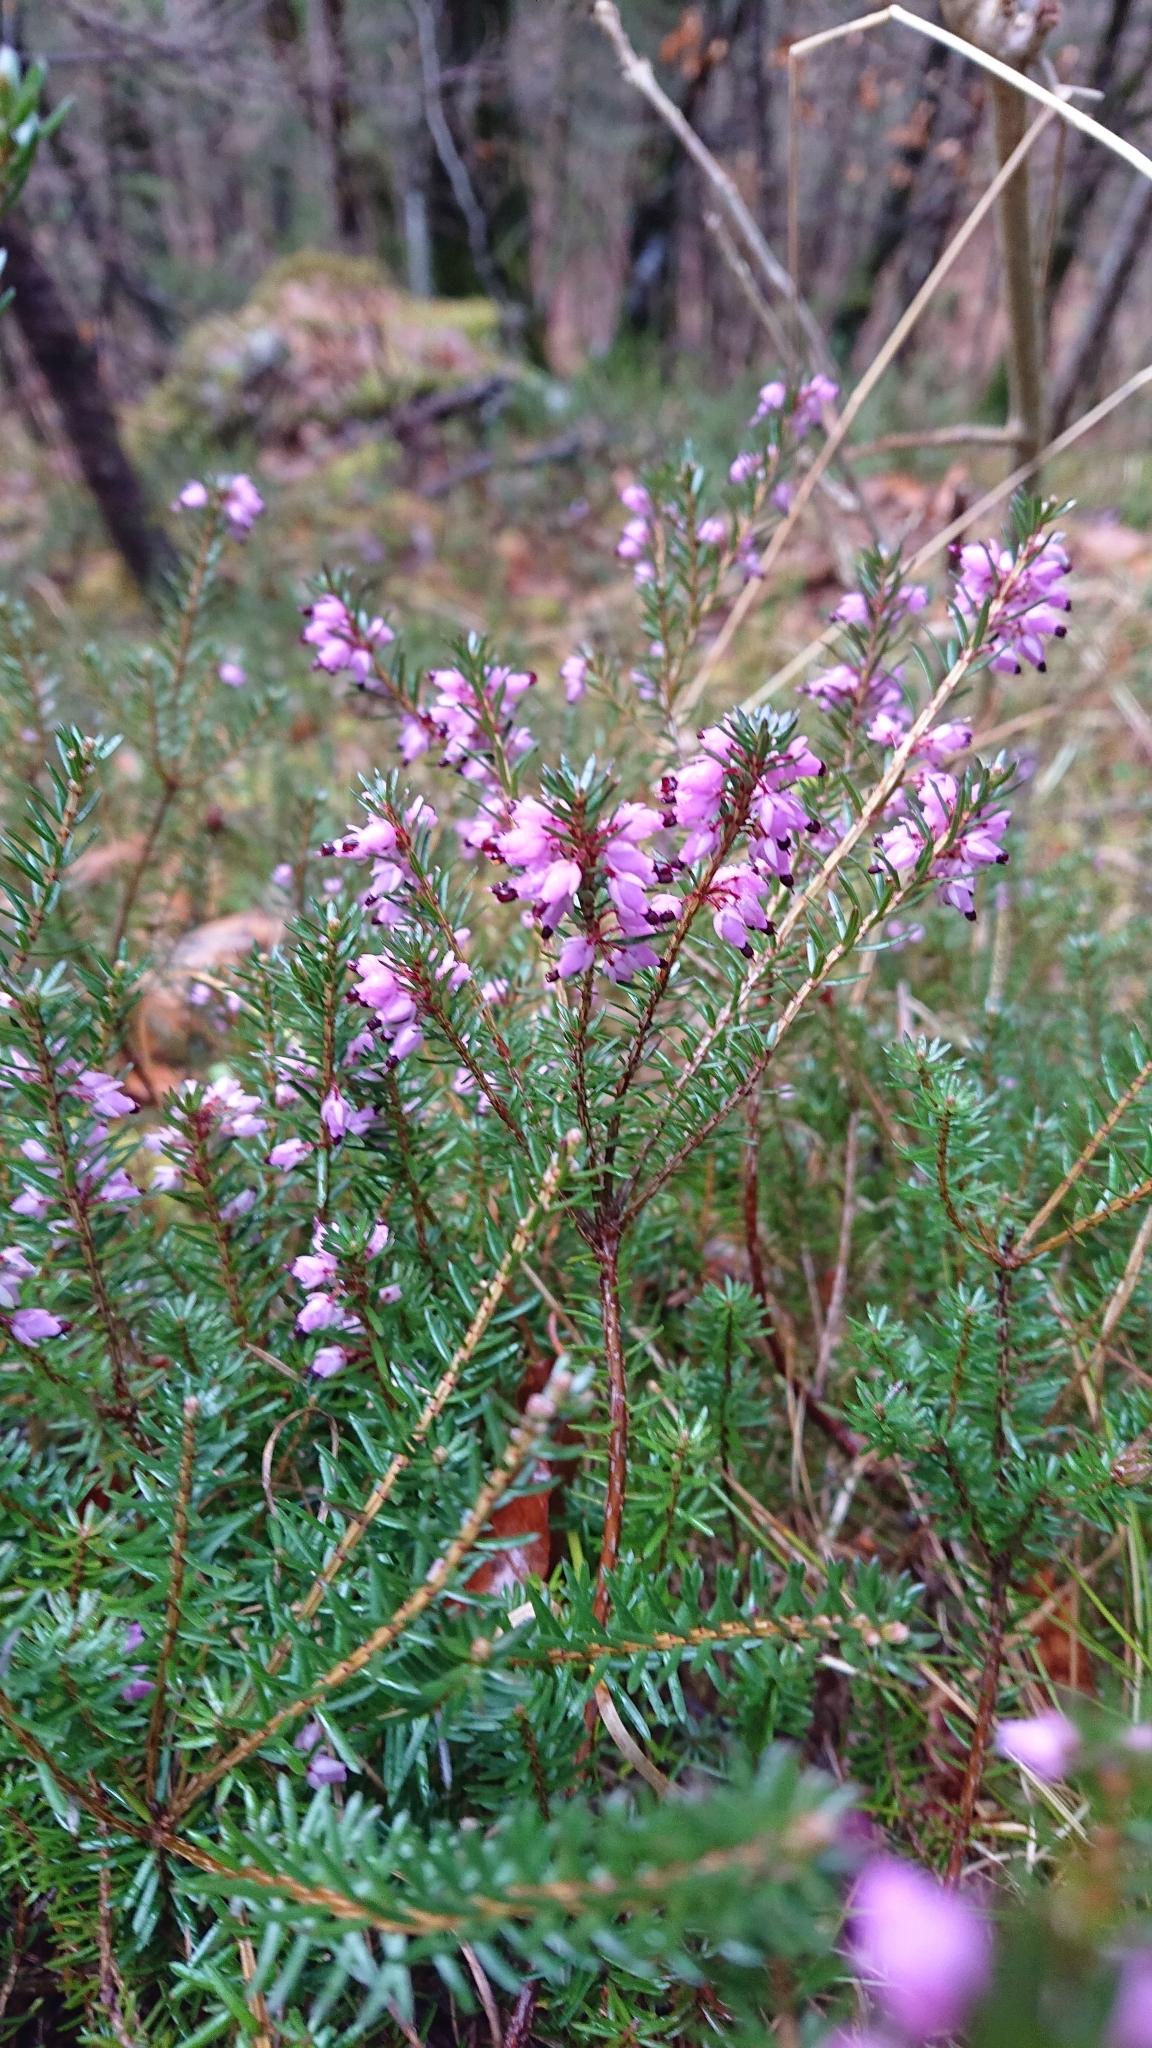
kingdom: Plantae
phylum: Tracheophyta
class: Magnoliopsida
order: Ericales
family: Ericaceae
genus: Erica
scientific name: Erica carnea
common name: Winter heath
